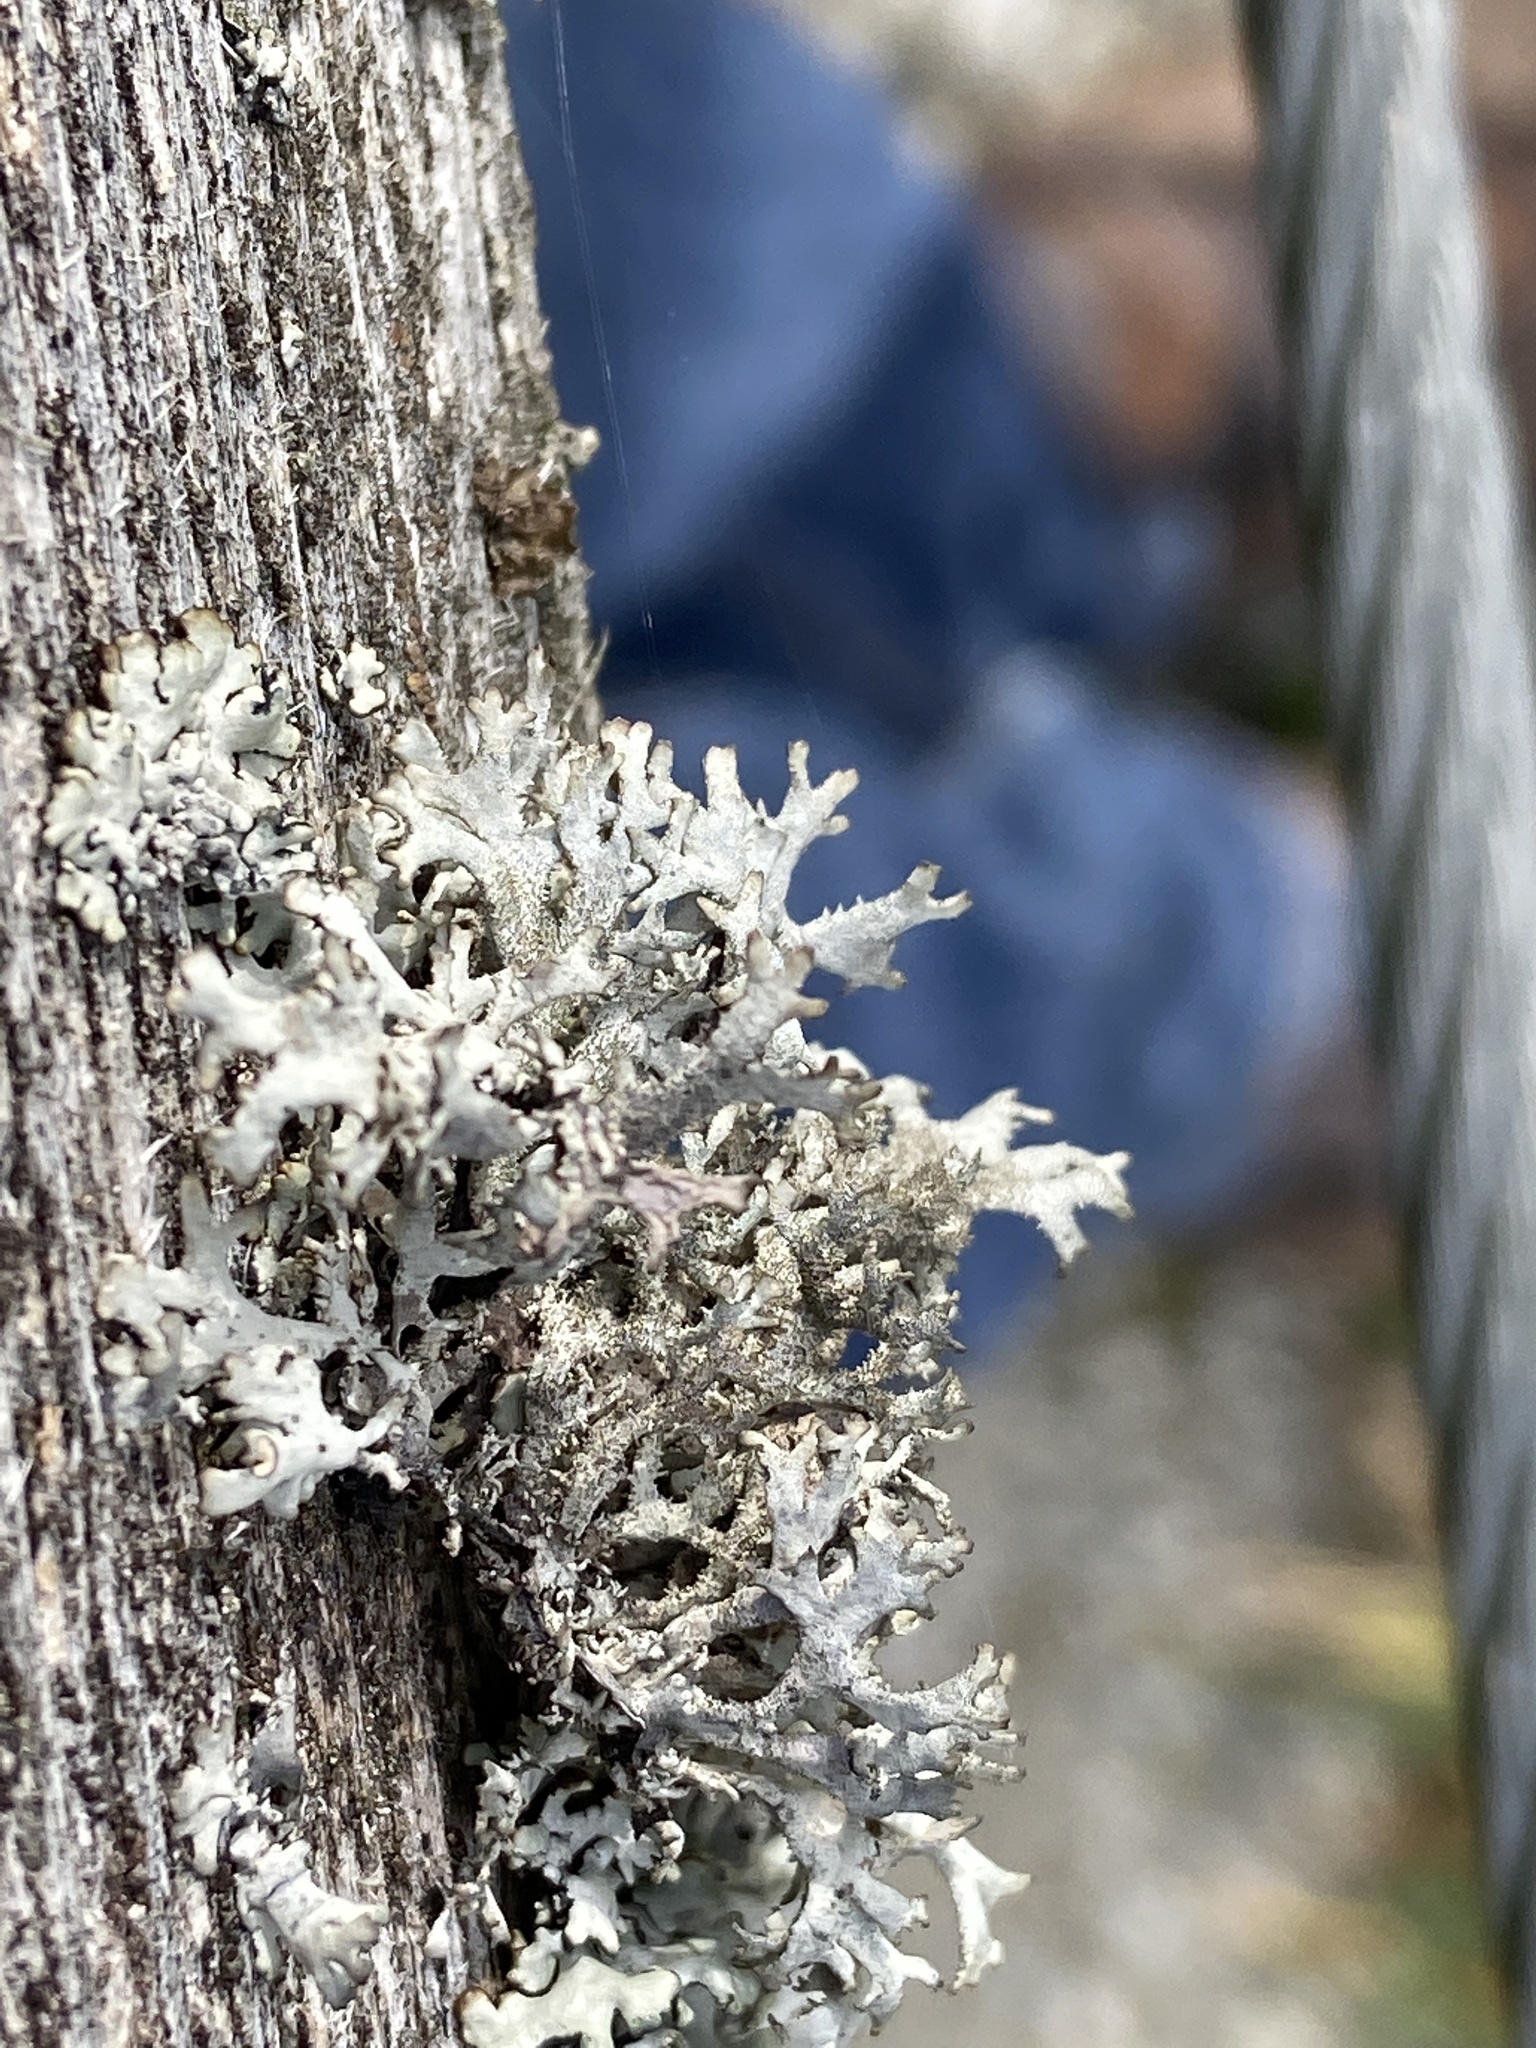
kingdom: Fungi
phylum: Ascomycota
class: Lecanoromycetes
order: Lecanorales
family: Parmeliaceae
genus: Pseudevernia
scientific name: Pseudevernia furfuracea
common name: Tree moss
